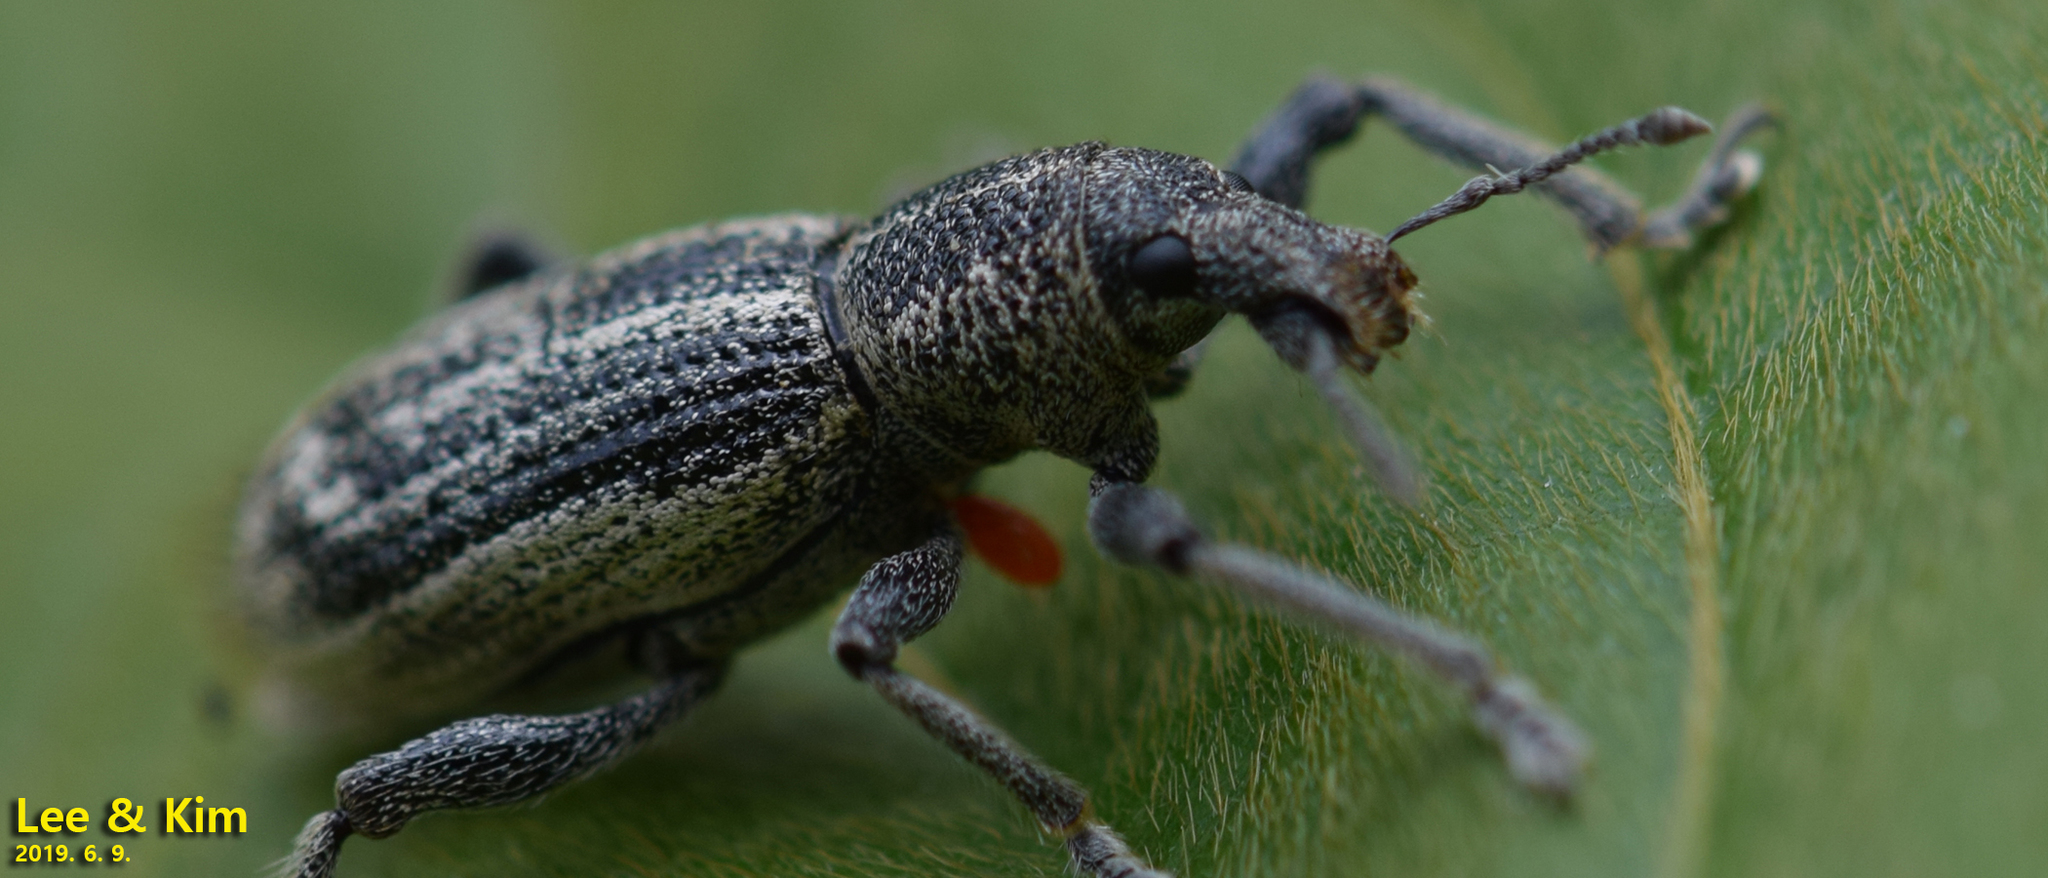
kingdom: Animalia
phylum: Arthropoda
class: Insecta
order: Coleoptera
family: Curculionidae
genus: Enaptorhinus
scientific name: Enaptorhinus granulatus
